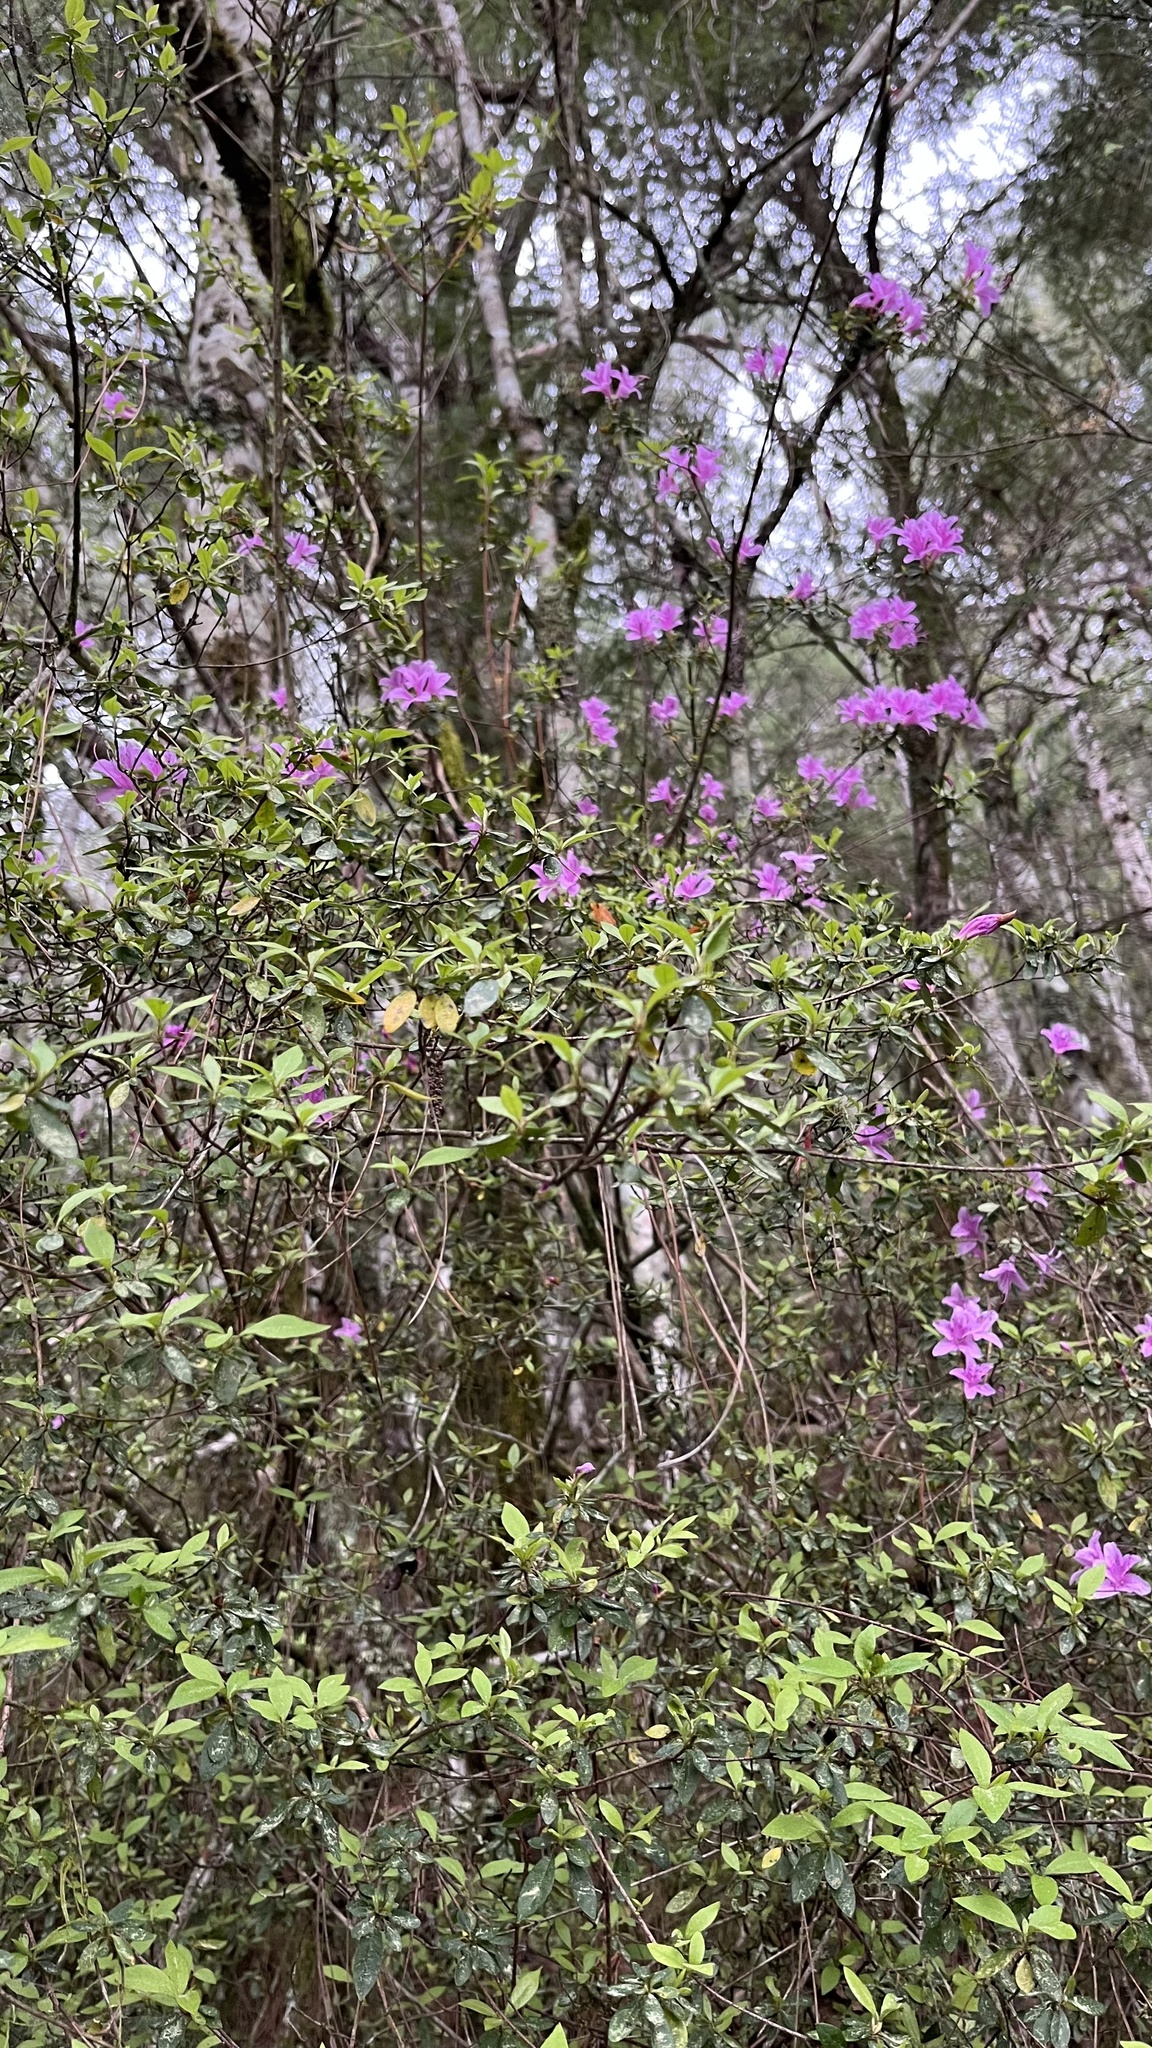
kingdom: Plantae
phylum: Tracheophyta
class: Magnoliopsida
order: Ericales
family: Ericaceae
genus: Rhododendron
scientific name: Rhododendron noriakianum
